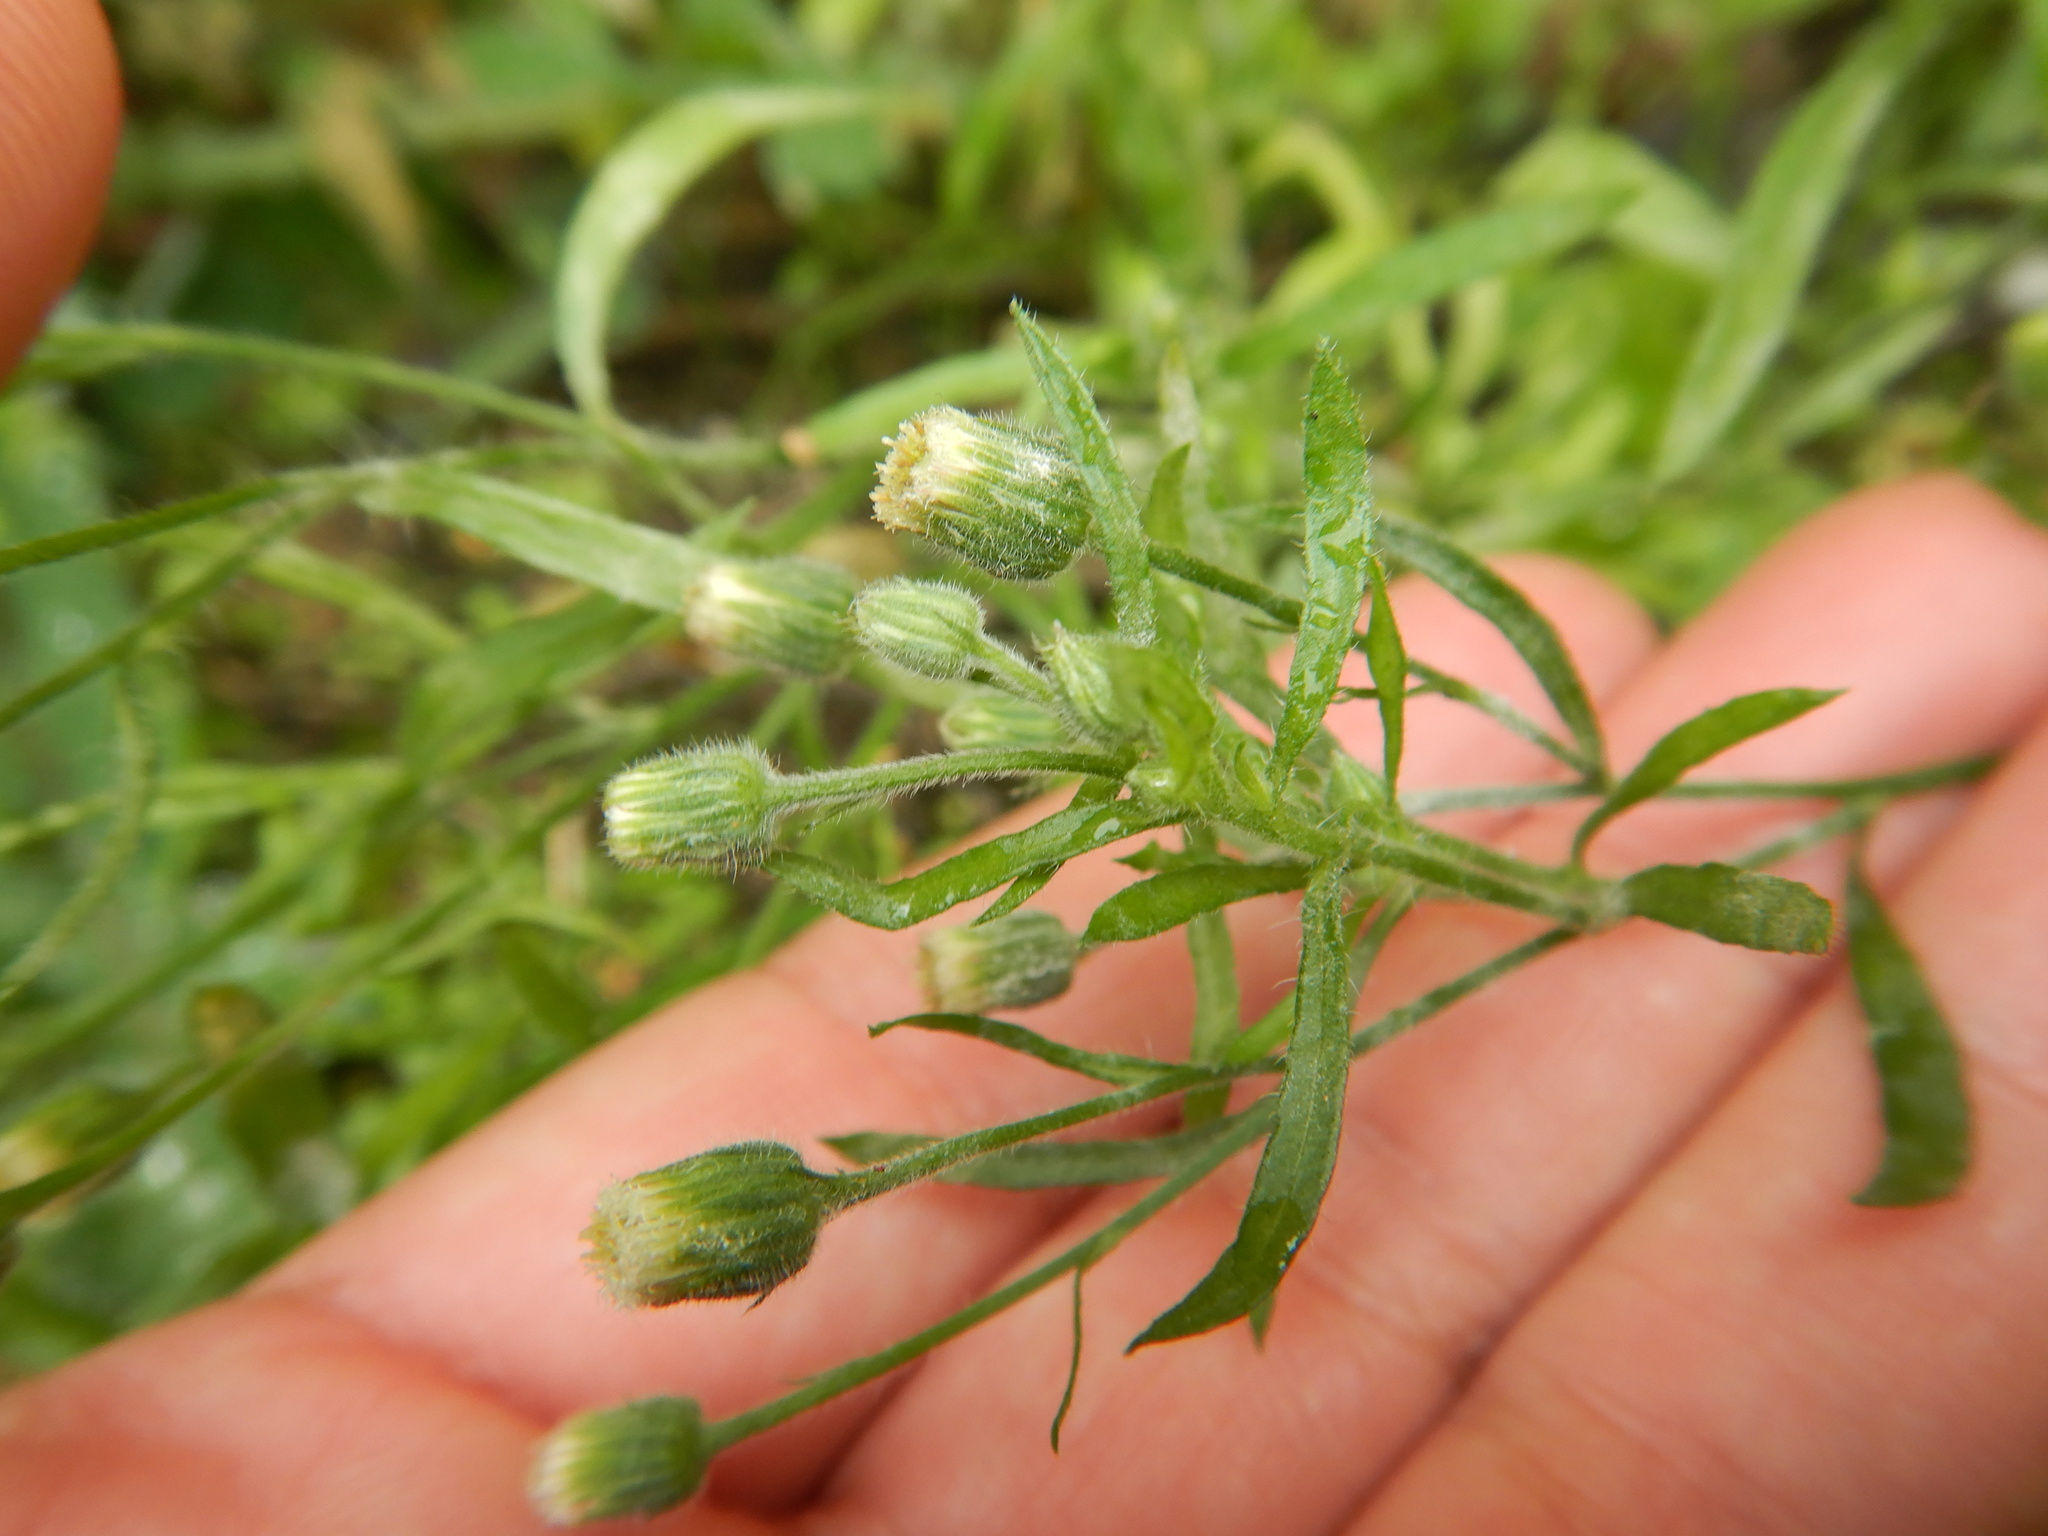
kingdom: Plantae
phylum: Tracheophyta
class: Magnoliopsida
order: Asterales
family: Asteraceae
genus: Erigeron
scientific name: Erigeron bonariensis
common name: Argentine fleabane
